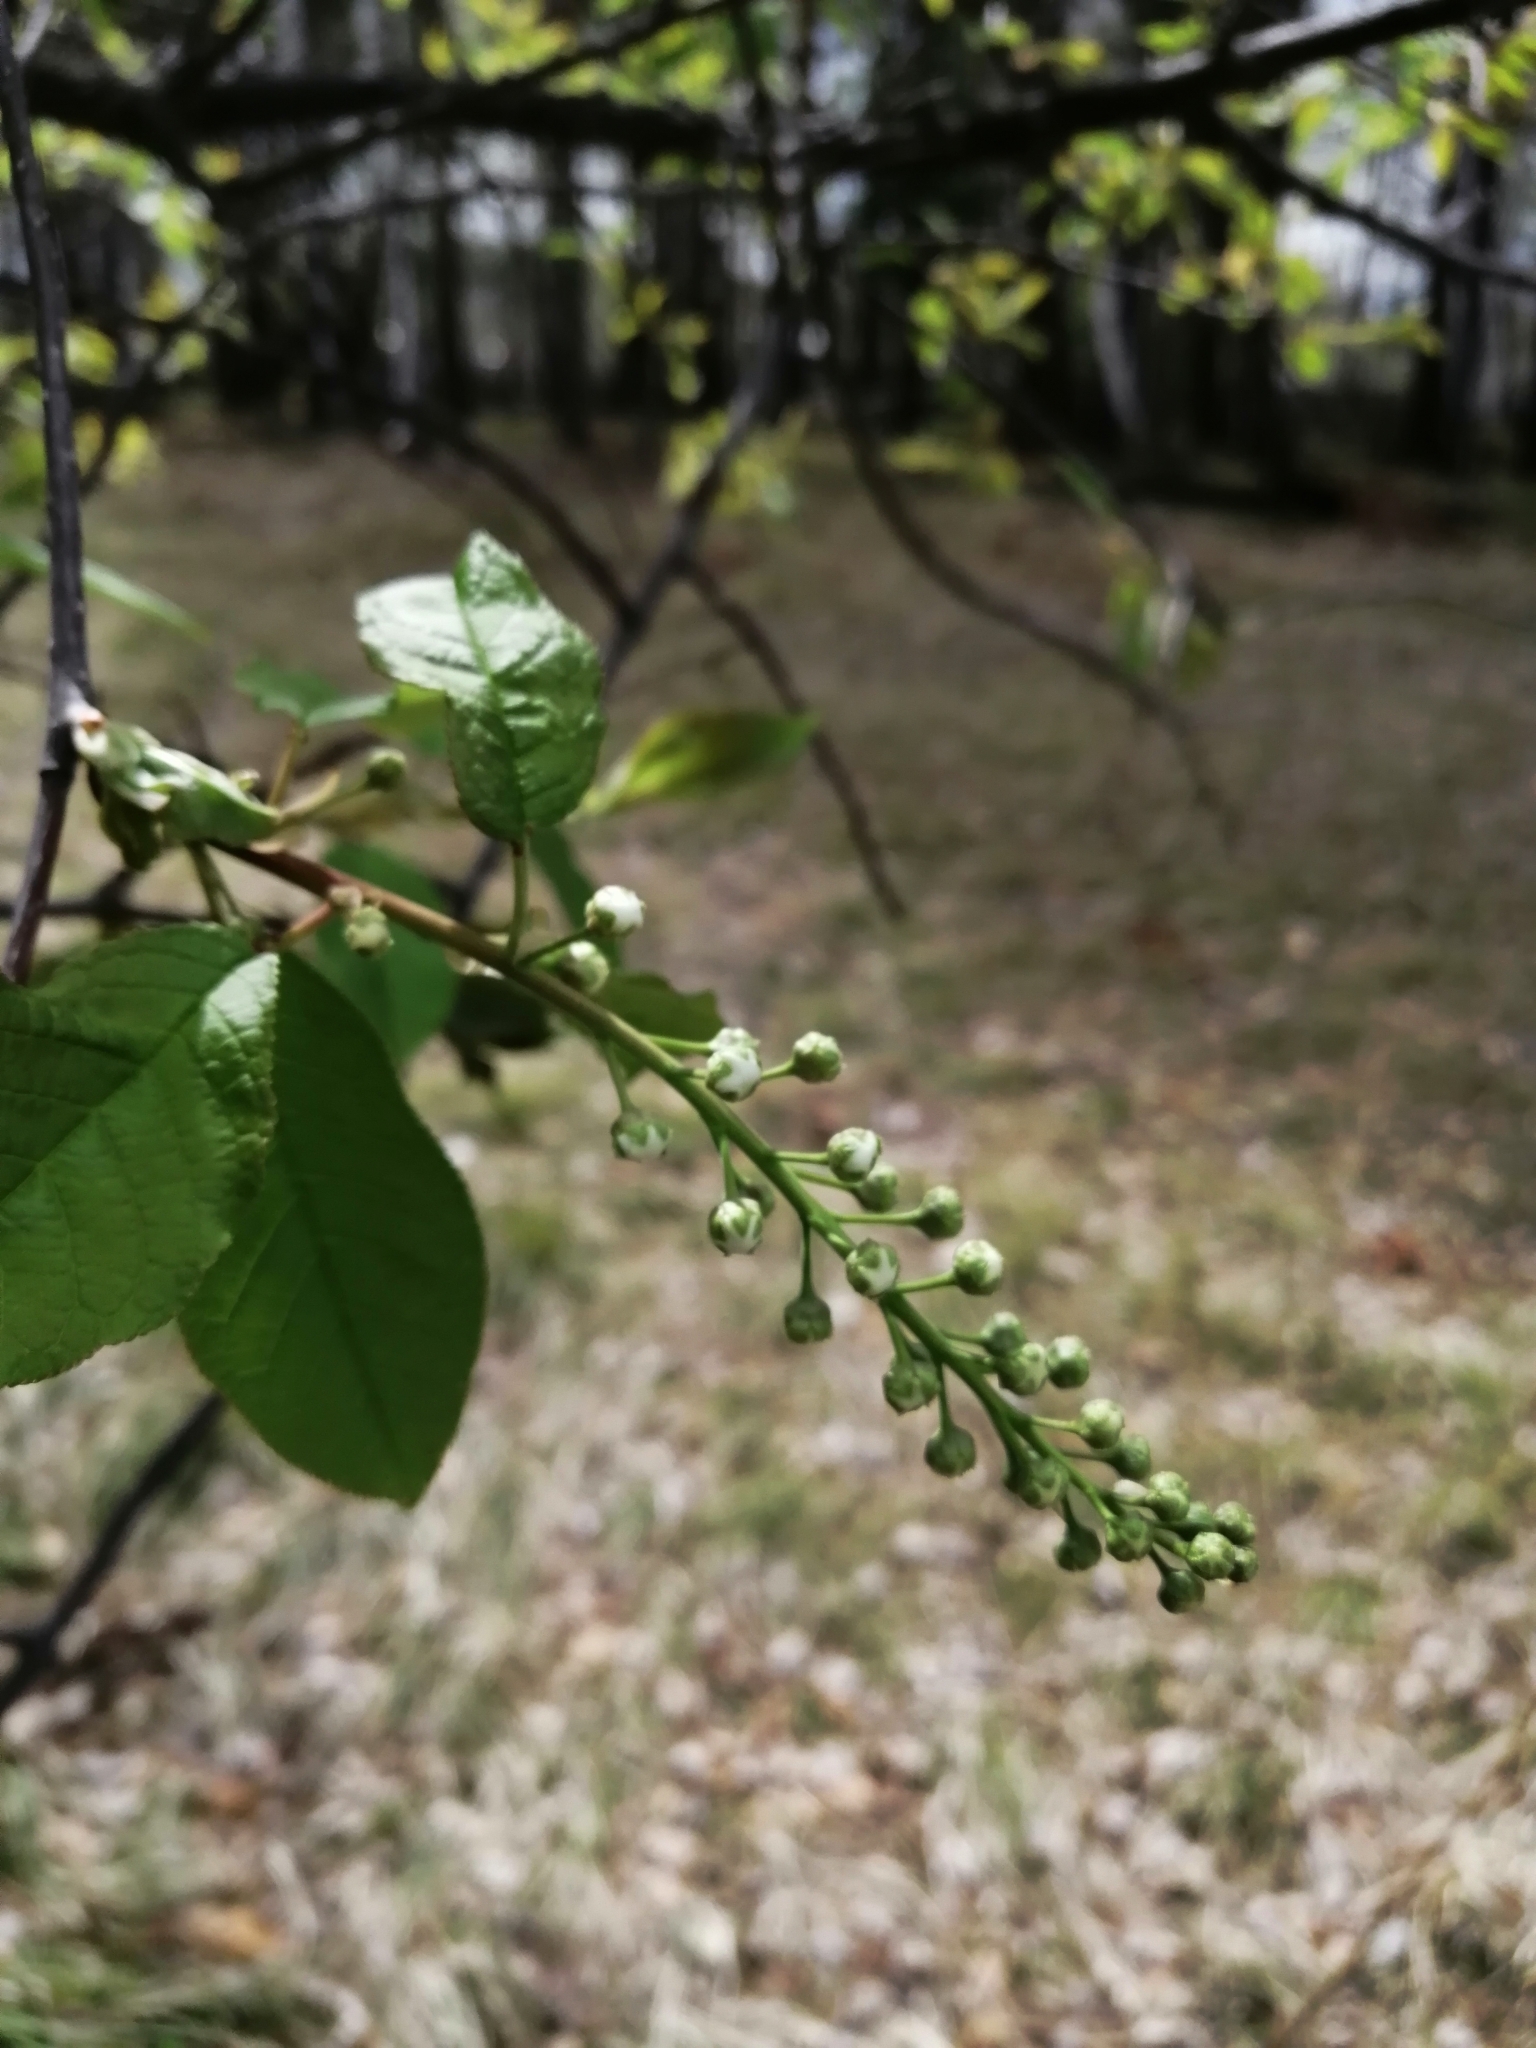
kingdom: Plantae
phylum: Tracheophyta
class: Magnoliopsida
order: Rosales
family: Rosaceae
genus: Prunus
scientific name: Prunus padus
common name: Bird cherry
